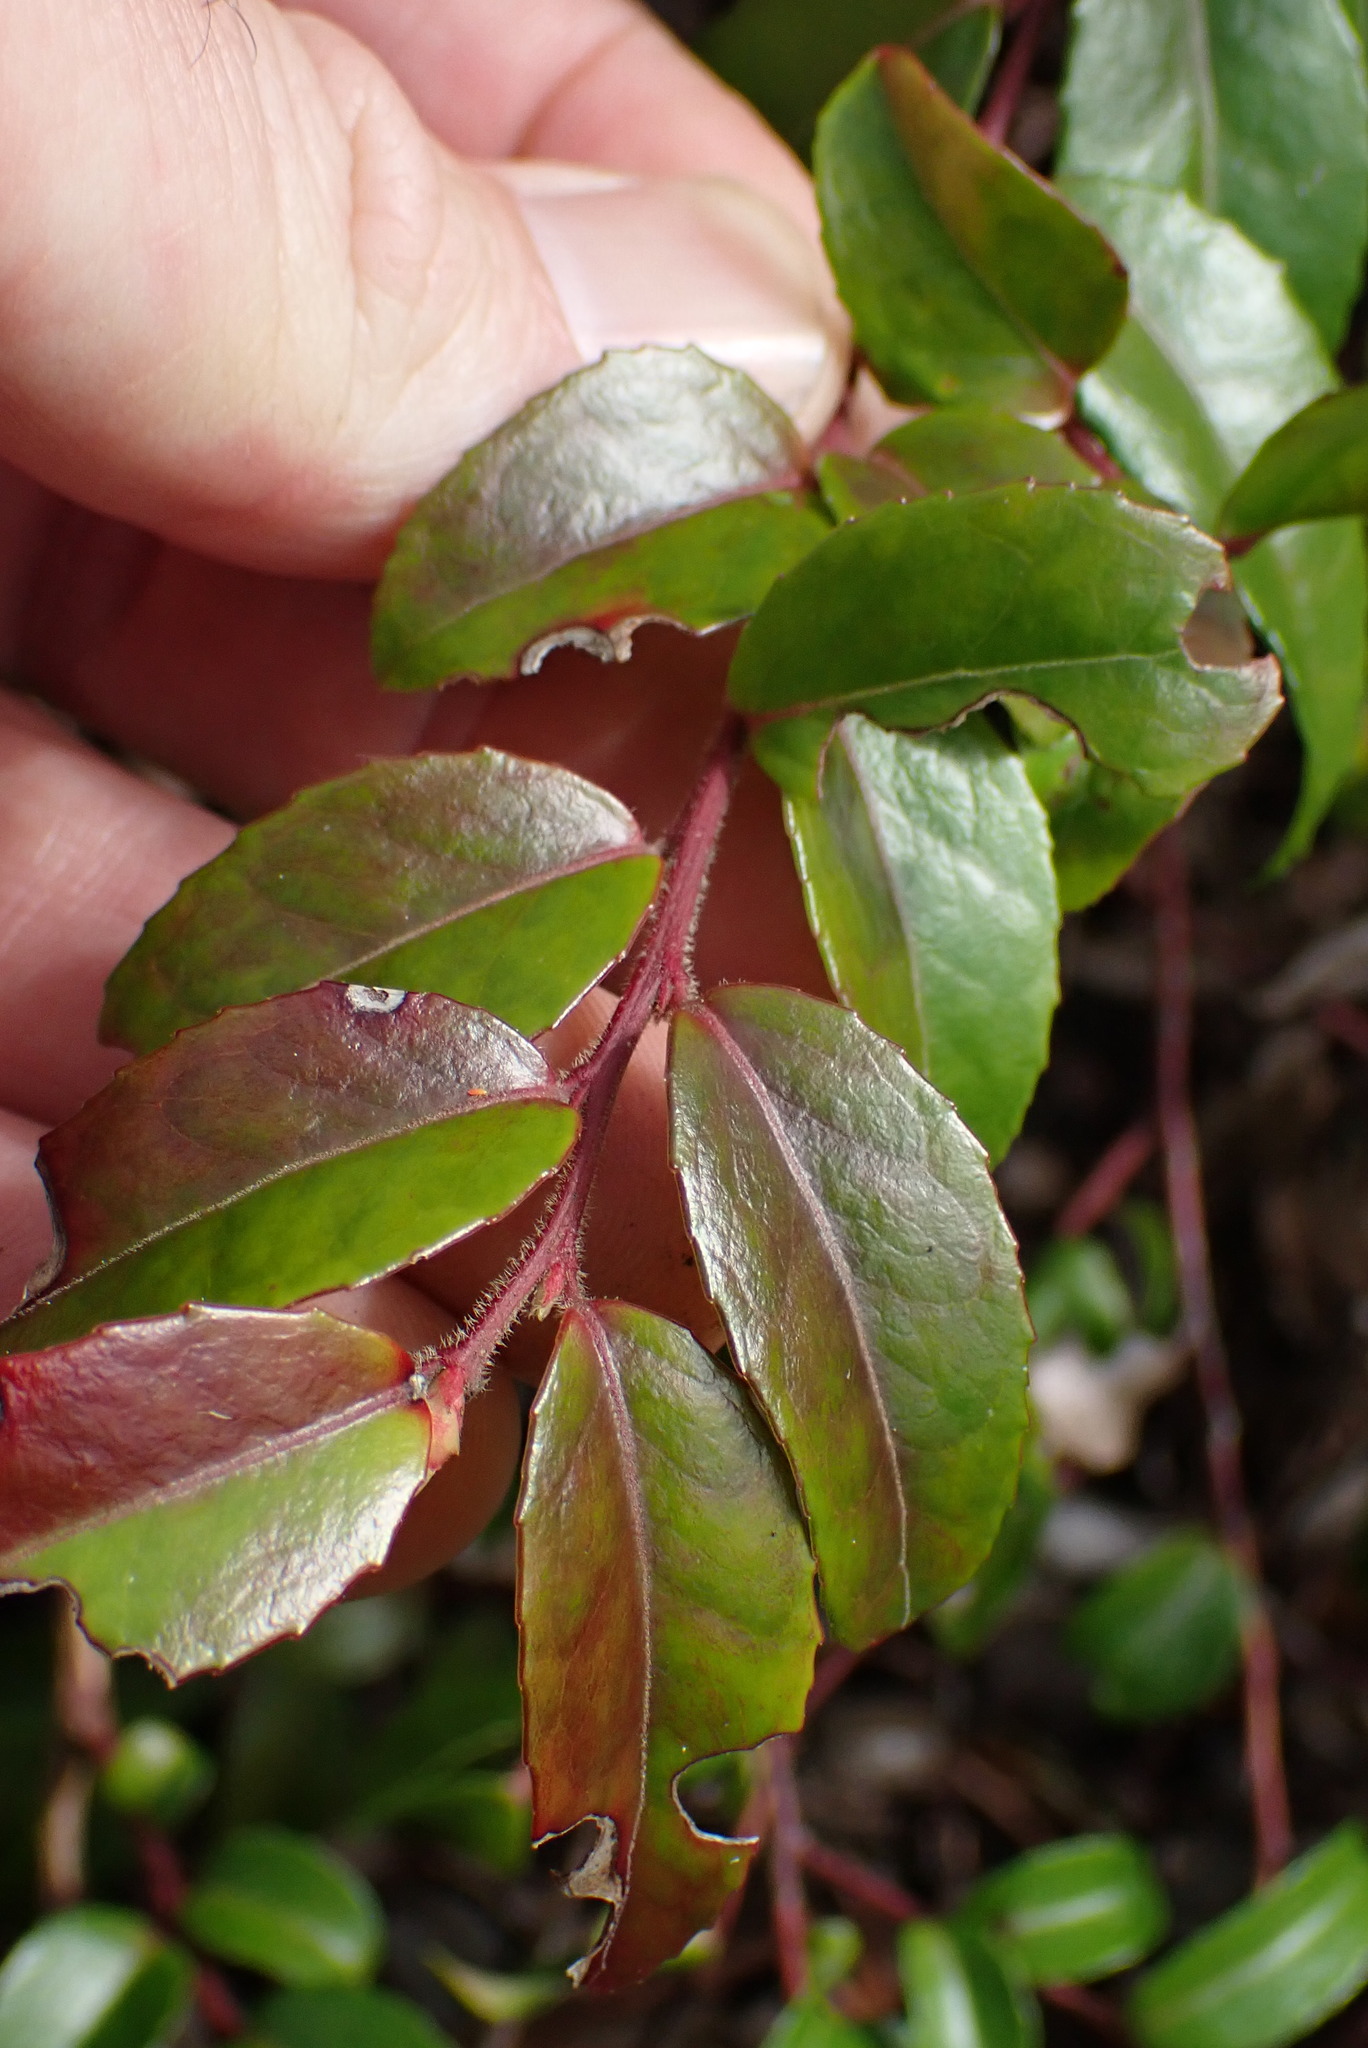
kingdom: Plantae
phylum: Tracheophyta
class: Magnoliopsida
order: Ericales
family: Ericaceae
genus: Vaccinium
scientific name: Vaccinium ovatum
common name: California-huckleberry
